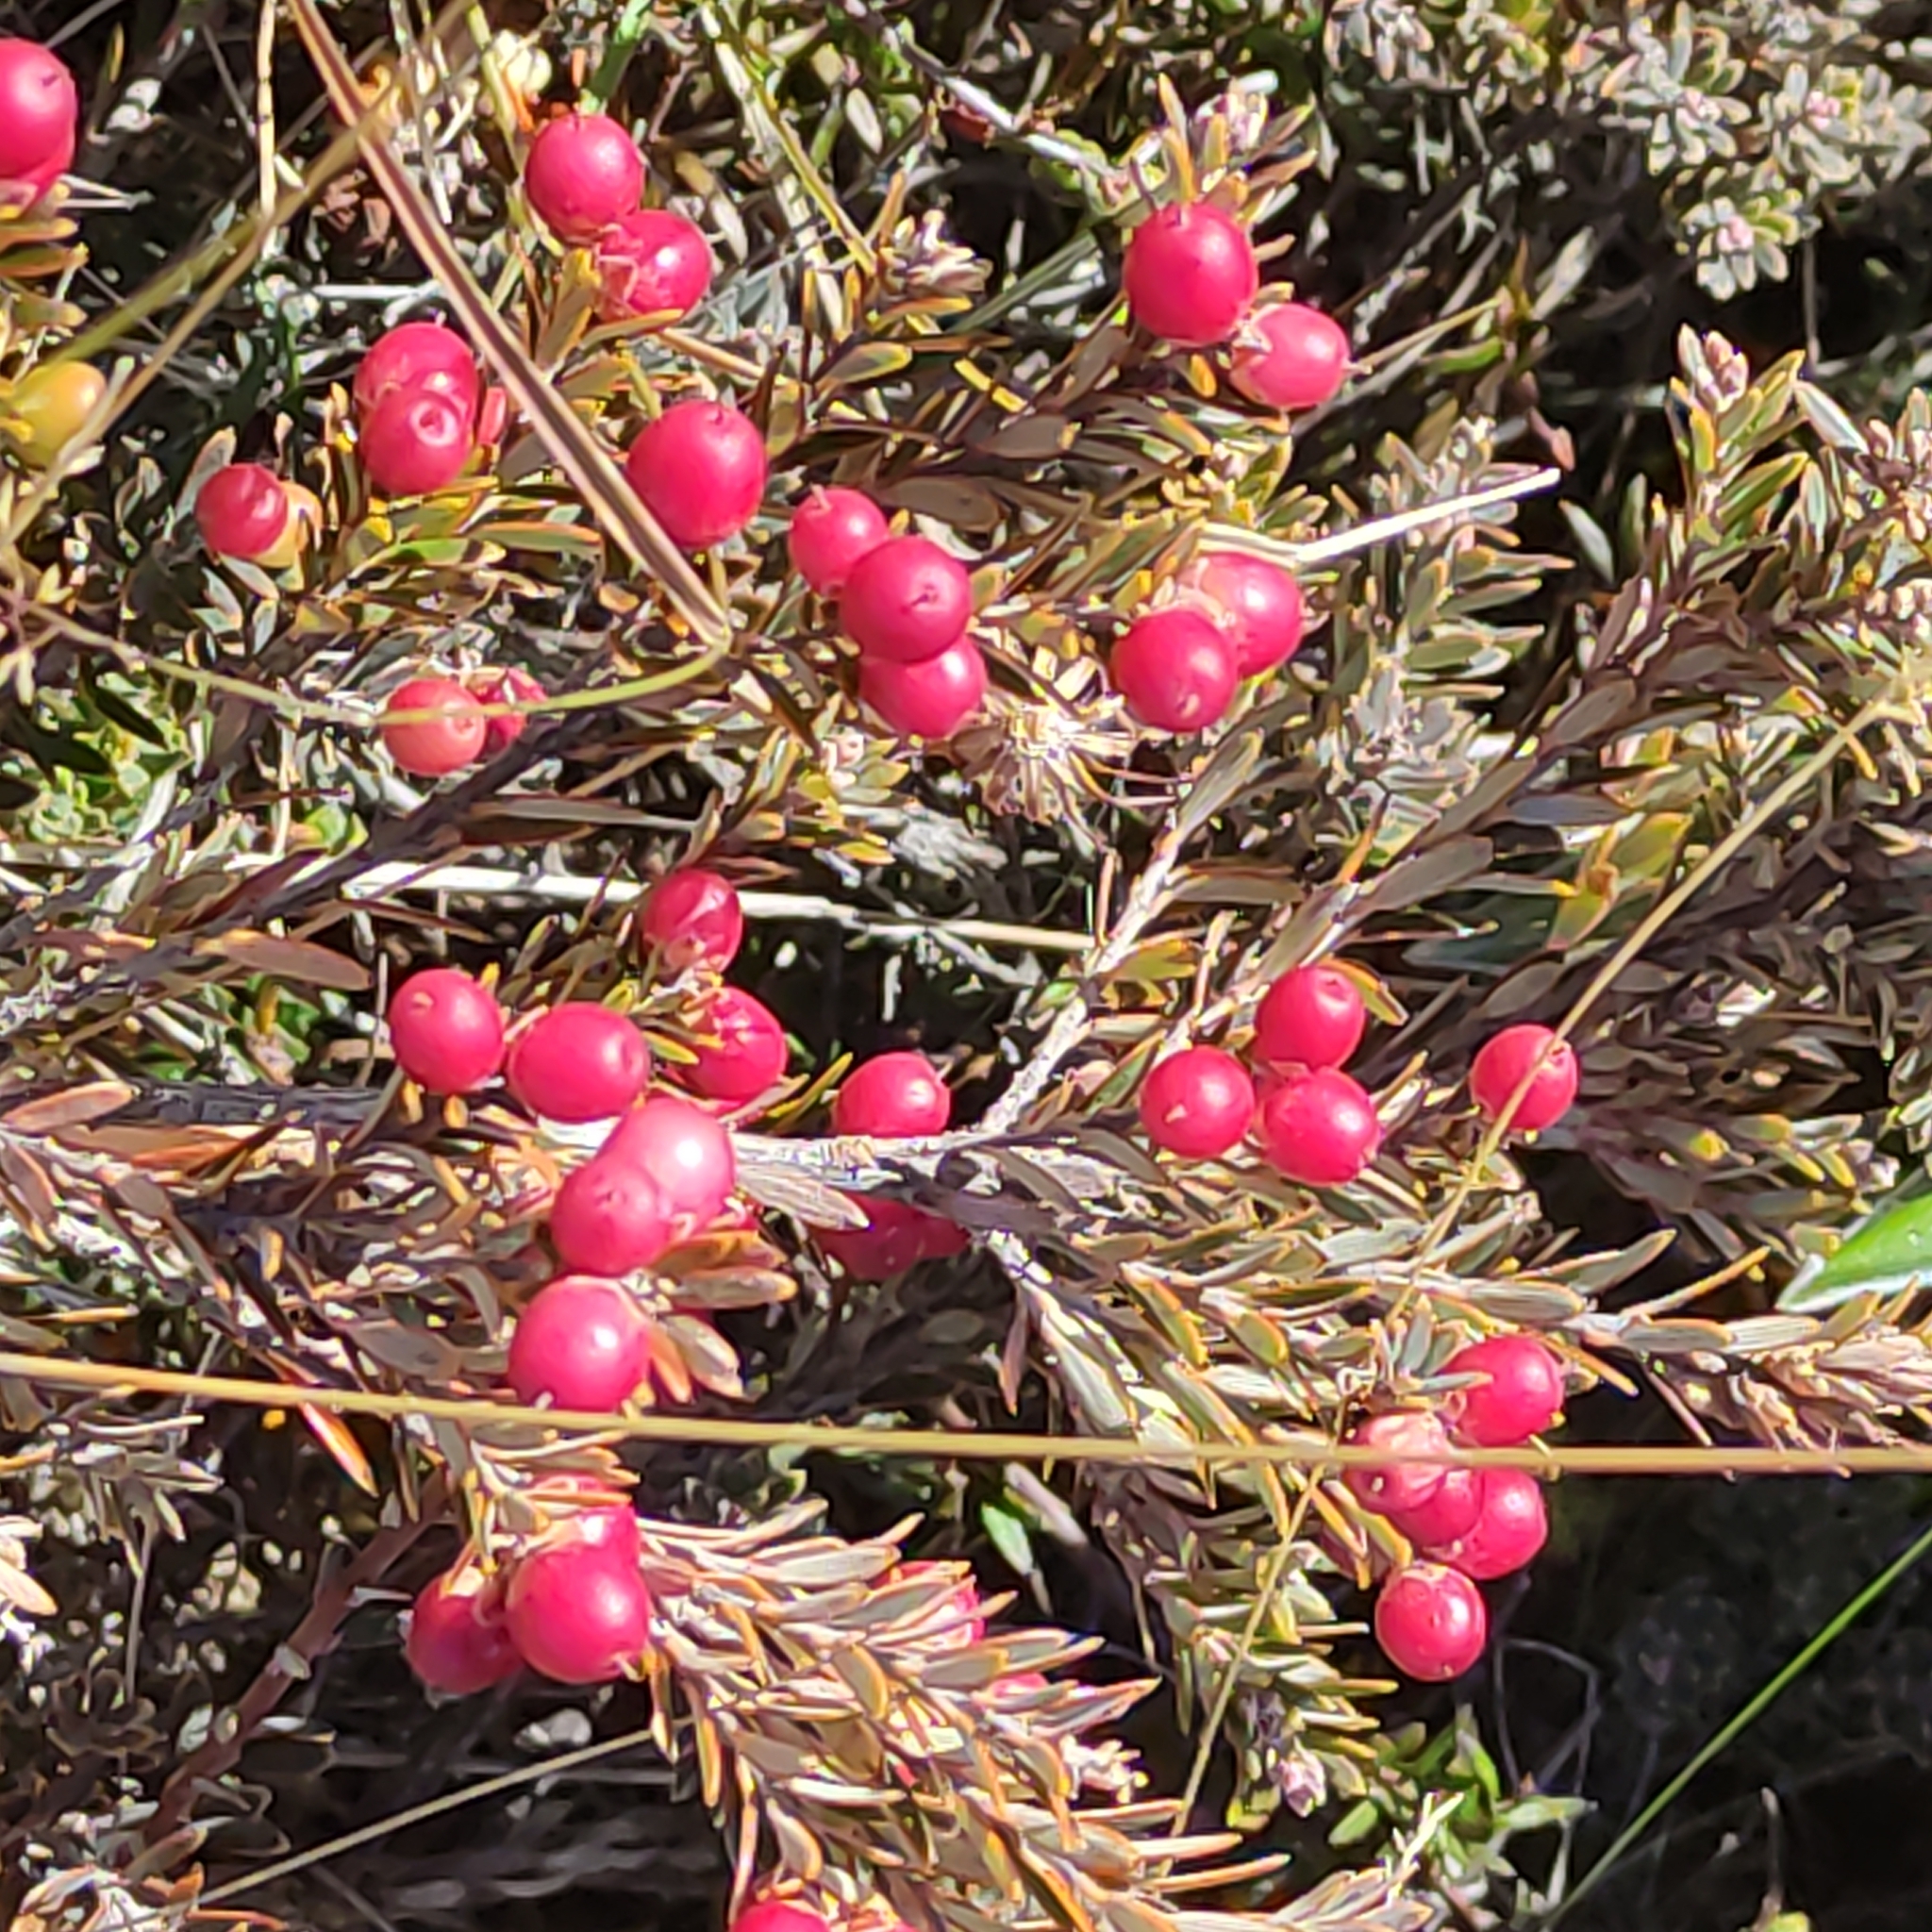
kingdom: Plantae
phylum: Tracheophyta
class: Magnoliopsida
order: Ericales
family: Ericaceae
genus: Acrothamnus
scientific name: Acrothamnus colensoi
